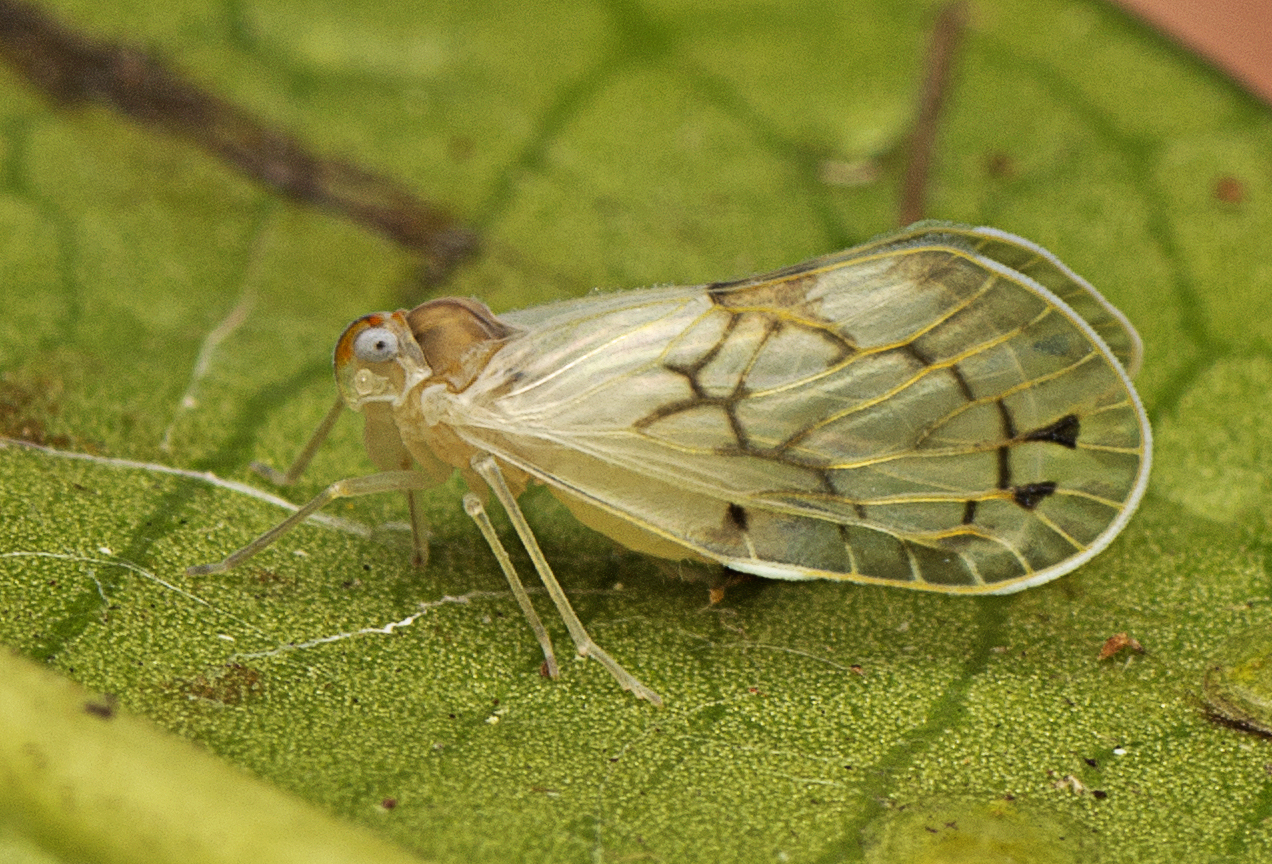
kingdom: Animalia
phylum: Arthropoda
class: Insecta
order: Hemiptera
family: Derbidae
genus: Levu
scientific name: Levu vitiensis
